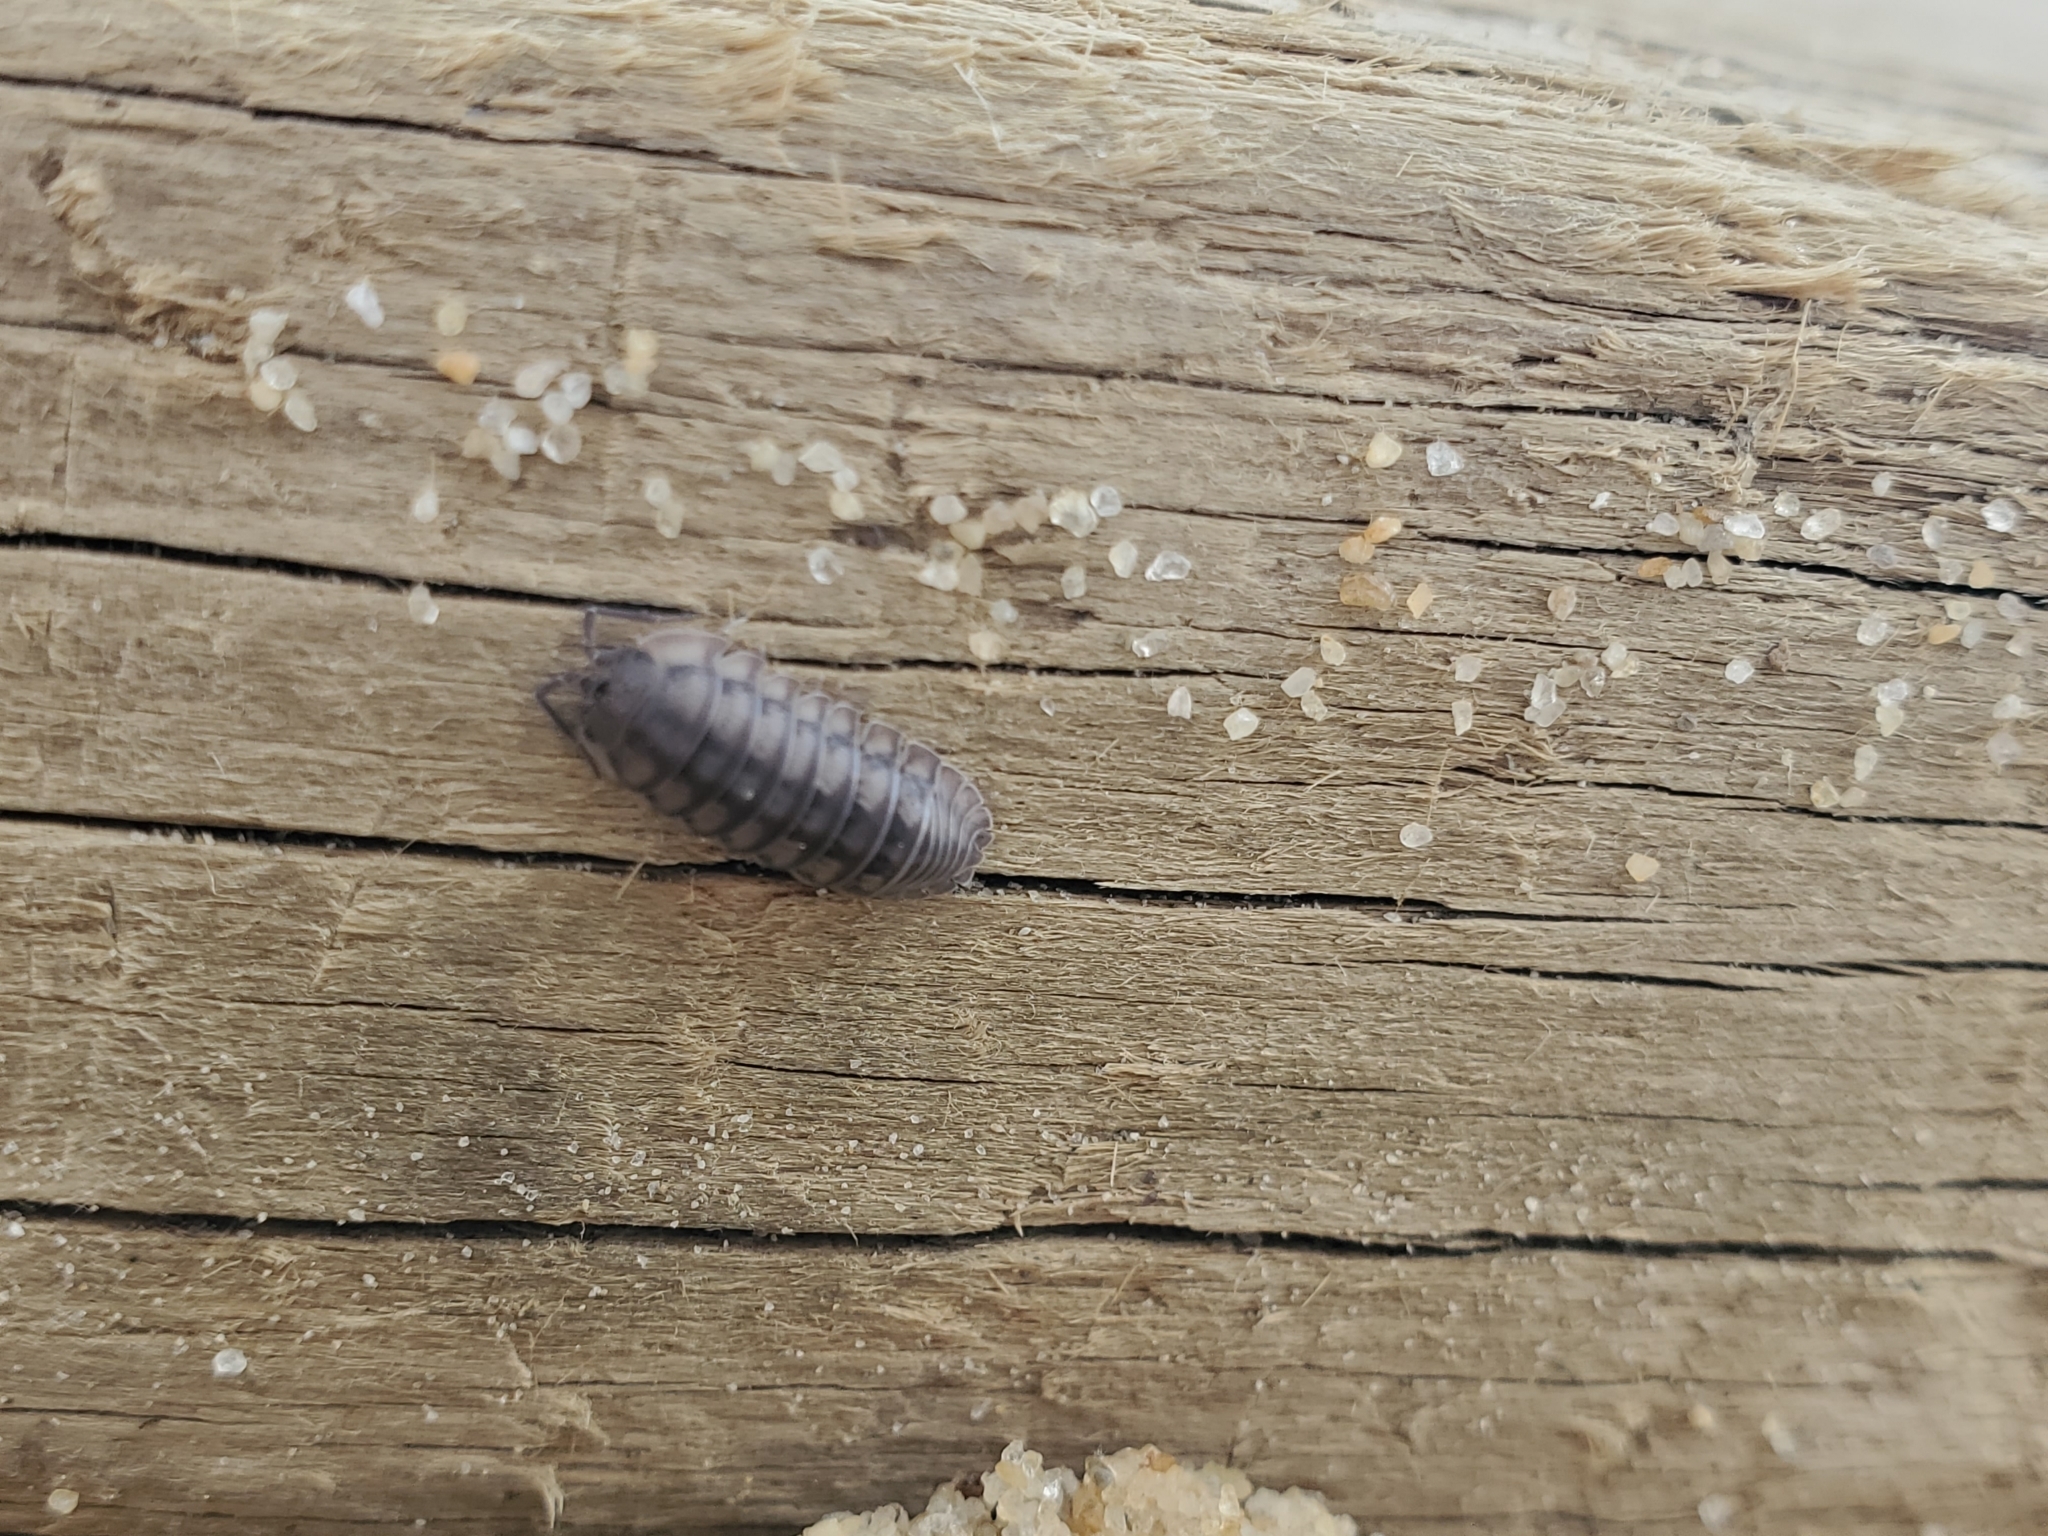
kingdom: Animalia
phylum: Arthropoda
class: Malacostraca
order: Isopoda
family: Armadillidiidae
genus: Armadillidium
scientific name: Armadillidium nasatum
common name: Isopod
